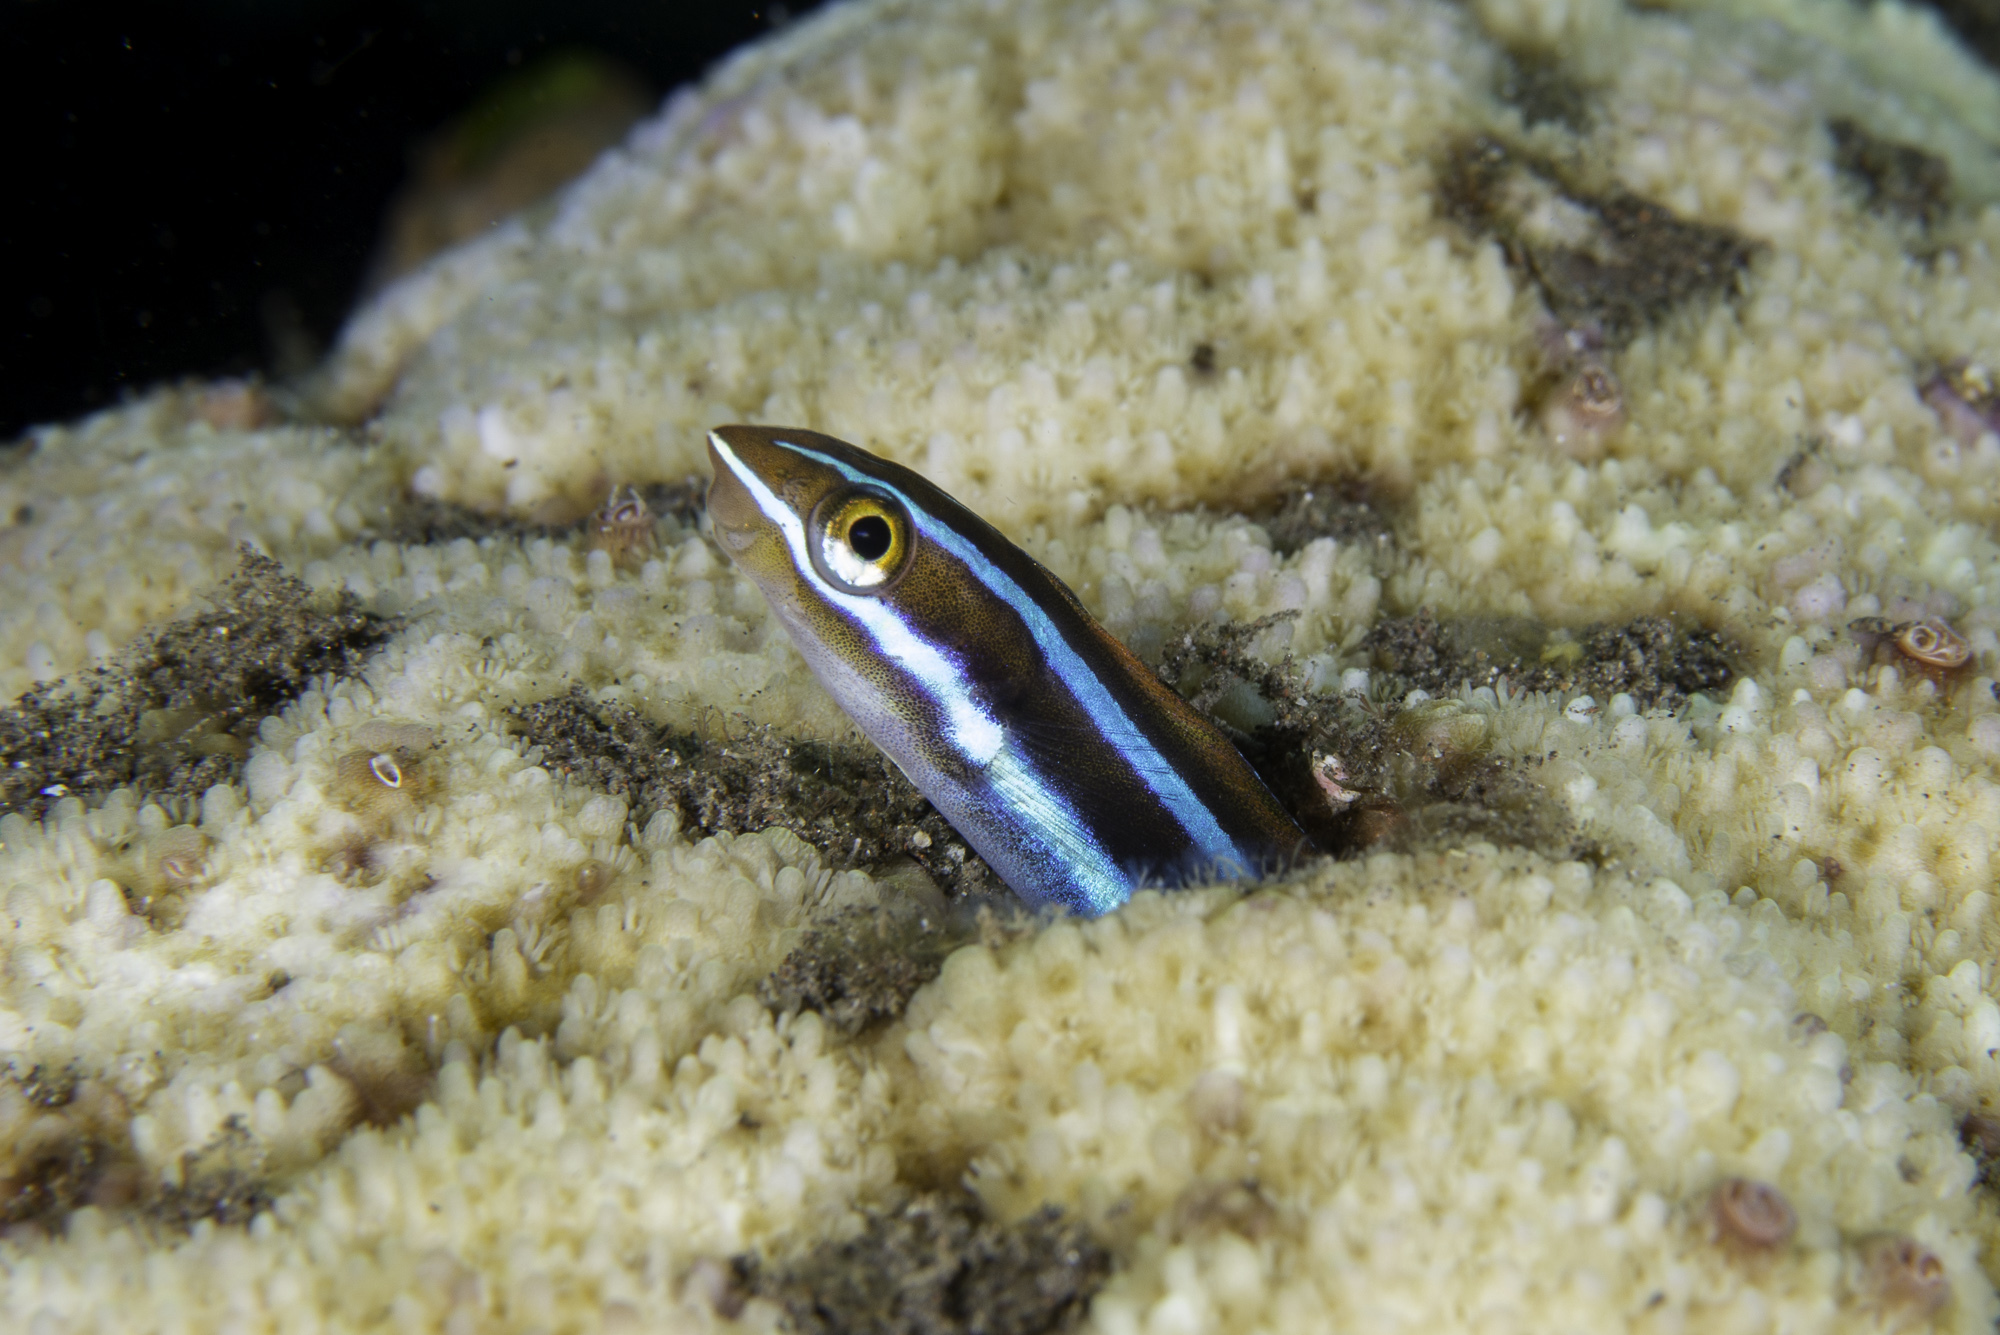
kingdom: Animalia
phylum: Chordata
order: Perciformes
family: Blenniidae
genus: Plagiotremus
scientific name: Plagiotremus rhinorhynchos
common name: Bluestriped fangblenny
